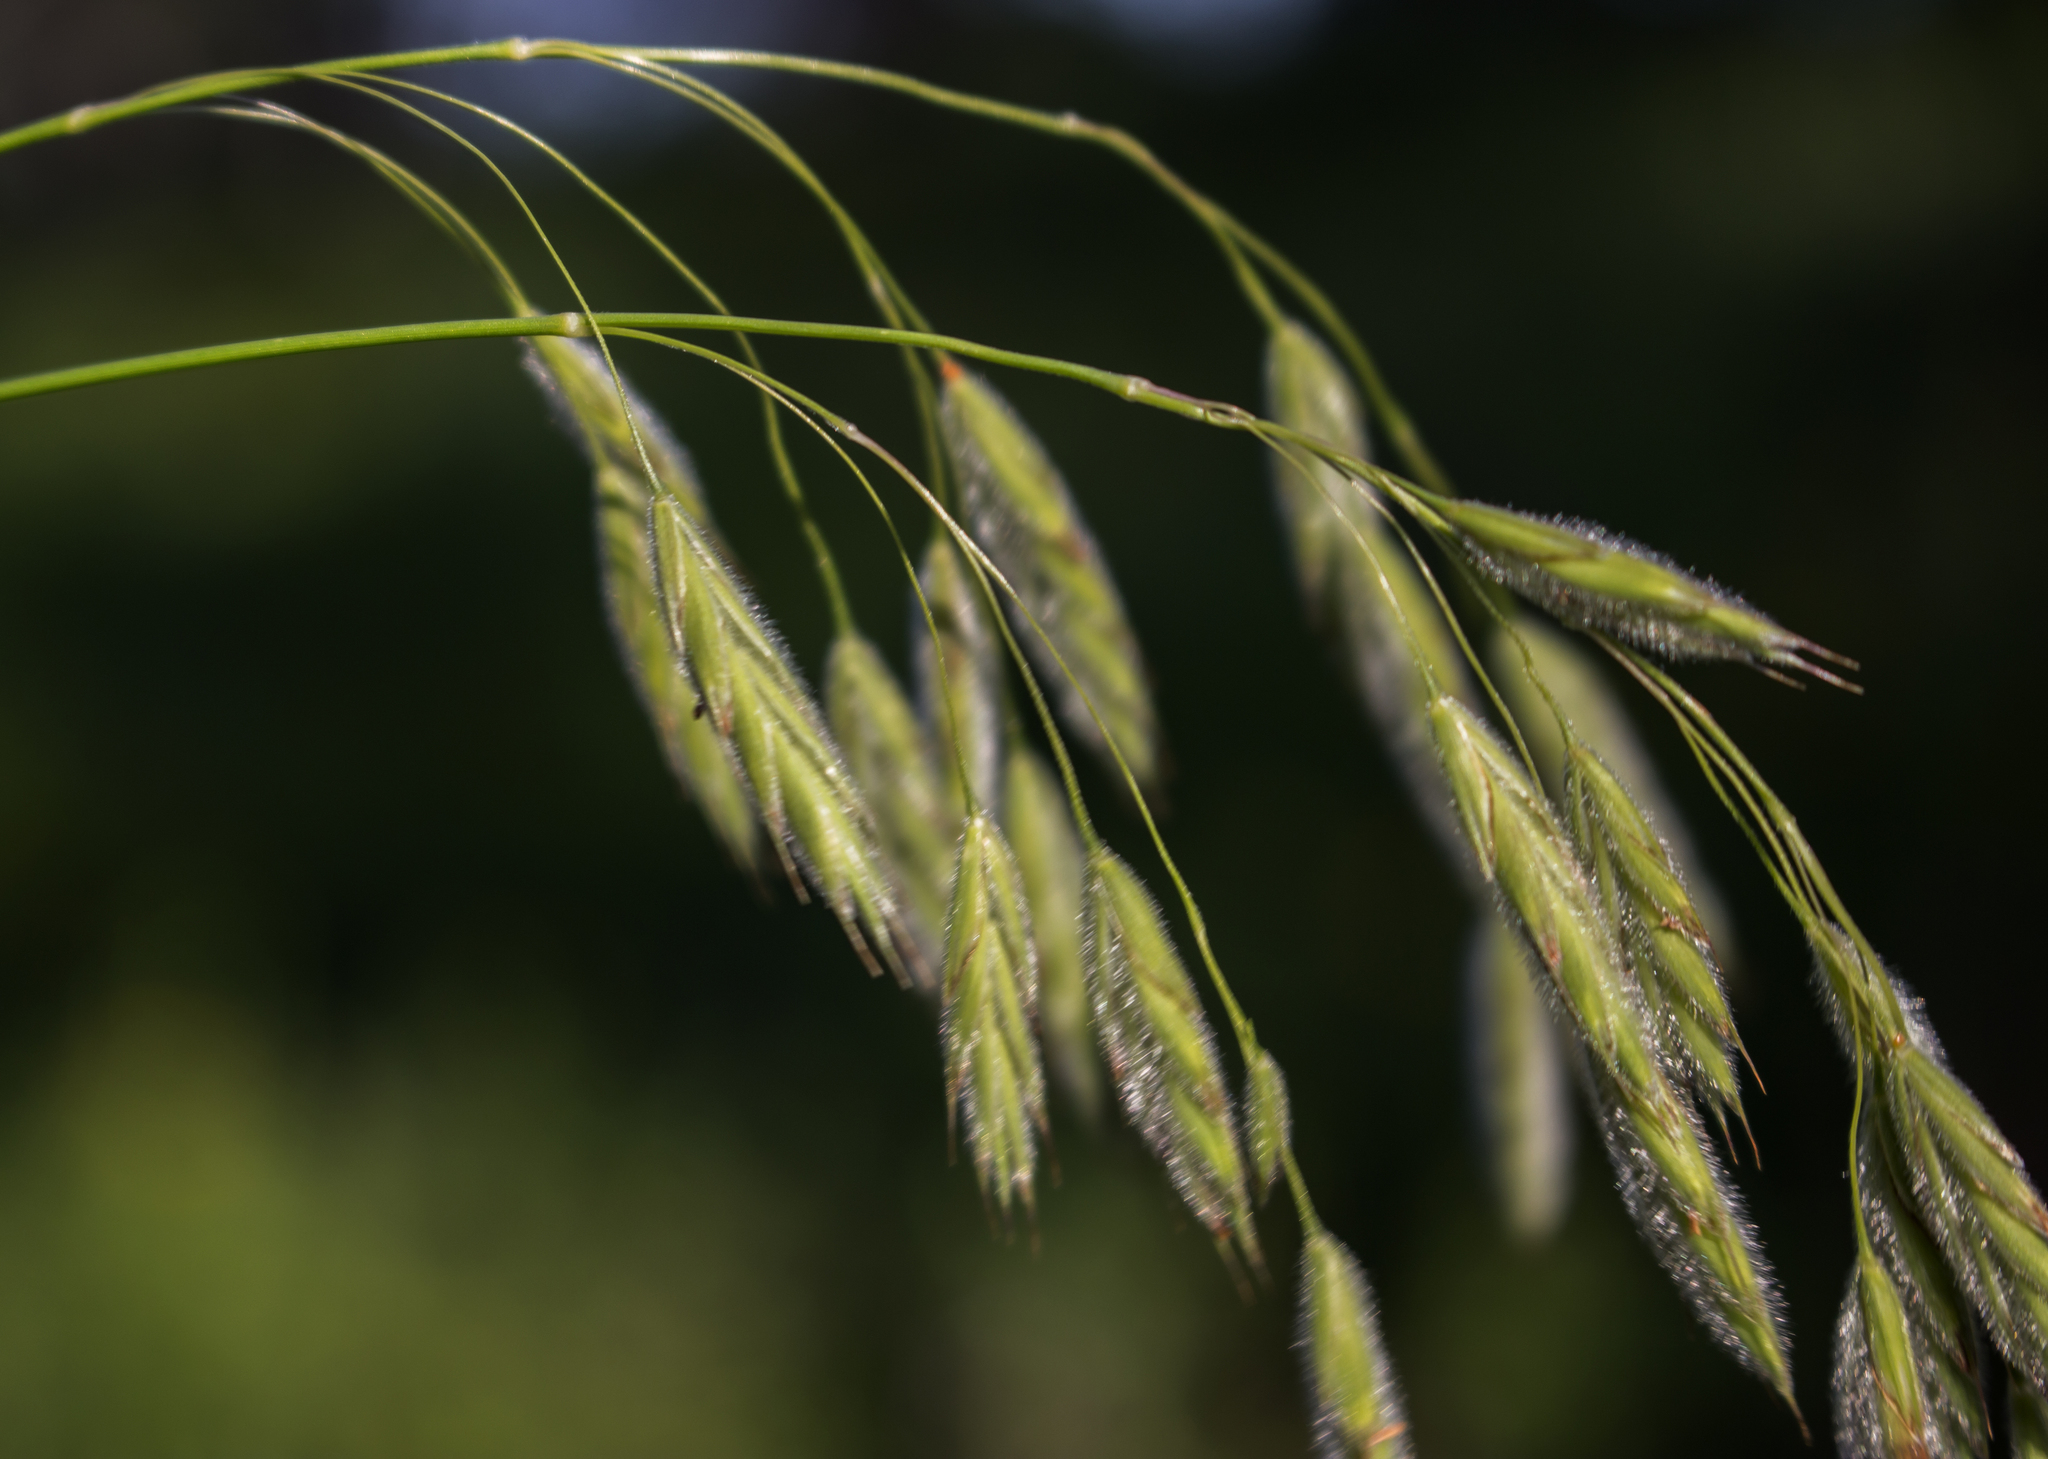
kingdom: Plantae
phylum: Tracheophyta
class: Liliopsida
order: Poales
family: Poaceae
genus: Bromus
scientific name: Bromus kalmii
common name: Kalm brome
